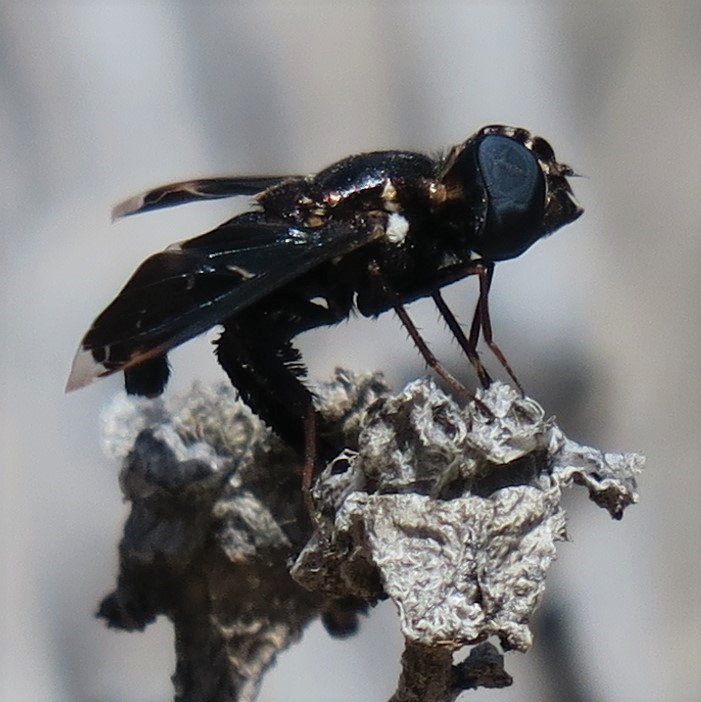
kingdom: Animalia
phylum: Arthropoda
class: Insecta
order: Diptera
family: Bombyliidae
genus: Pterobates
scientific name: Pterobates apicalis
